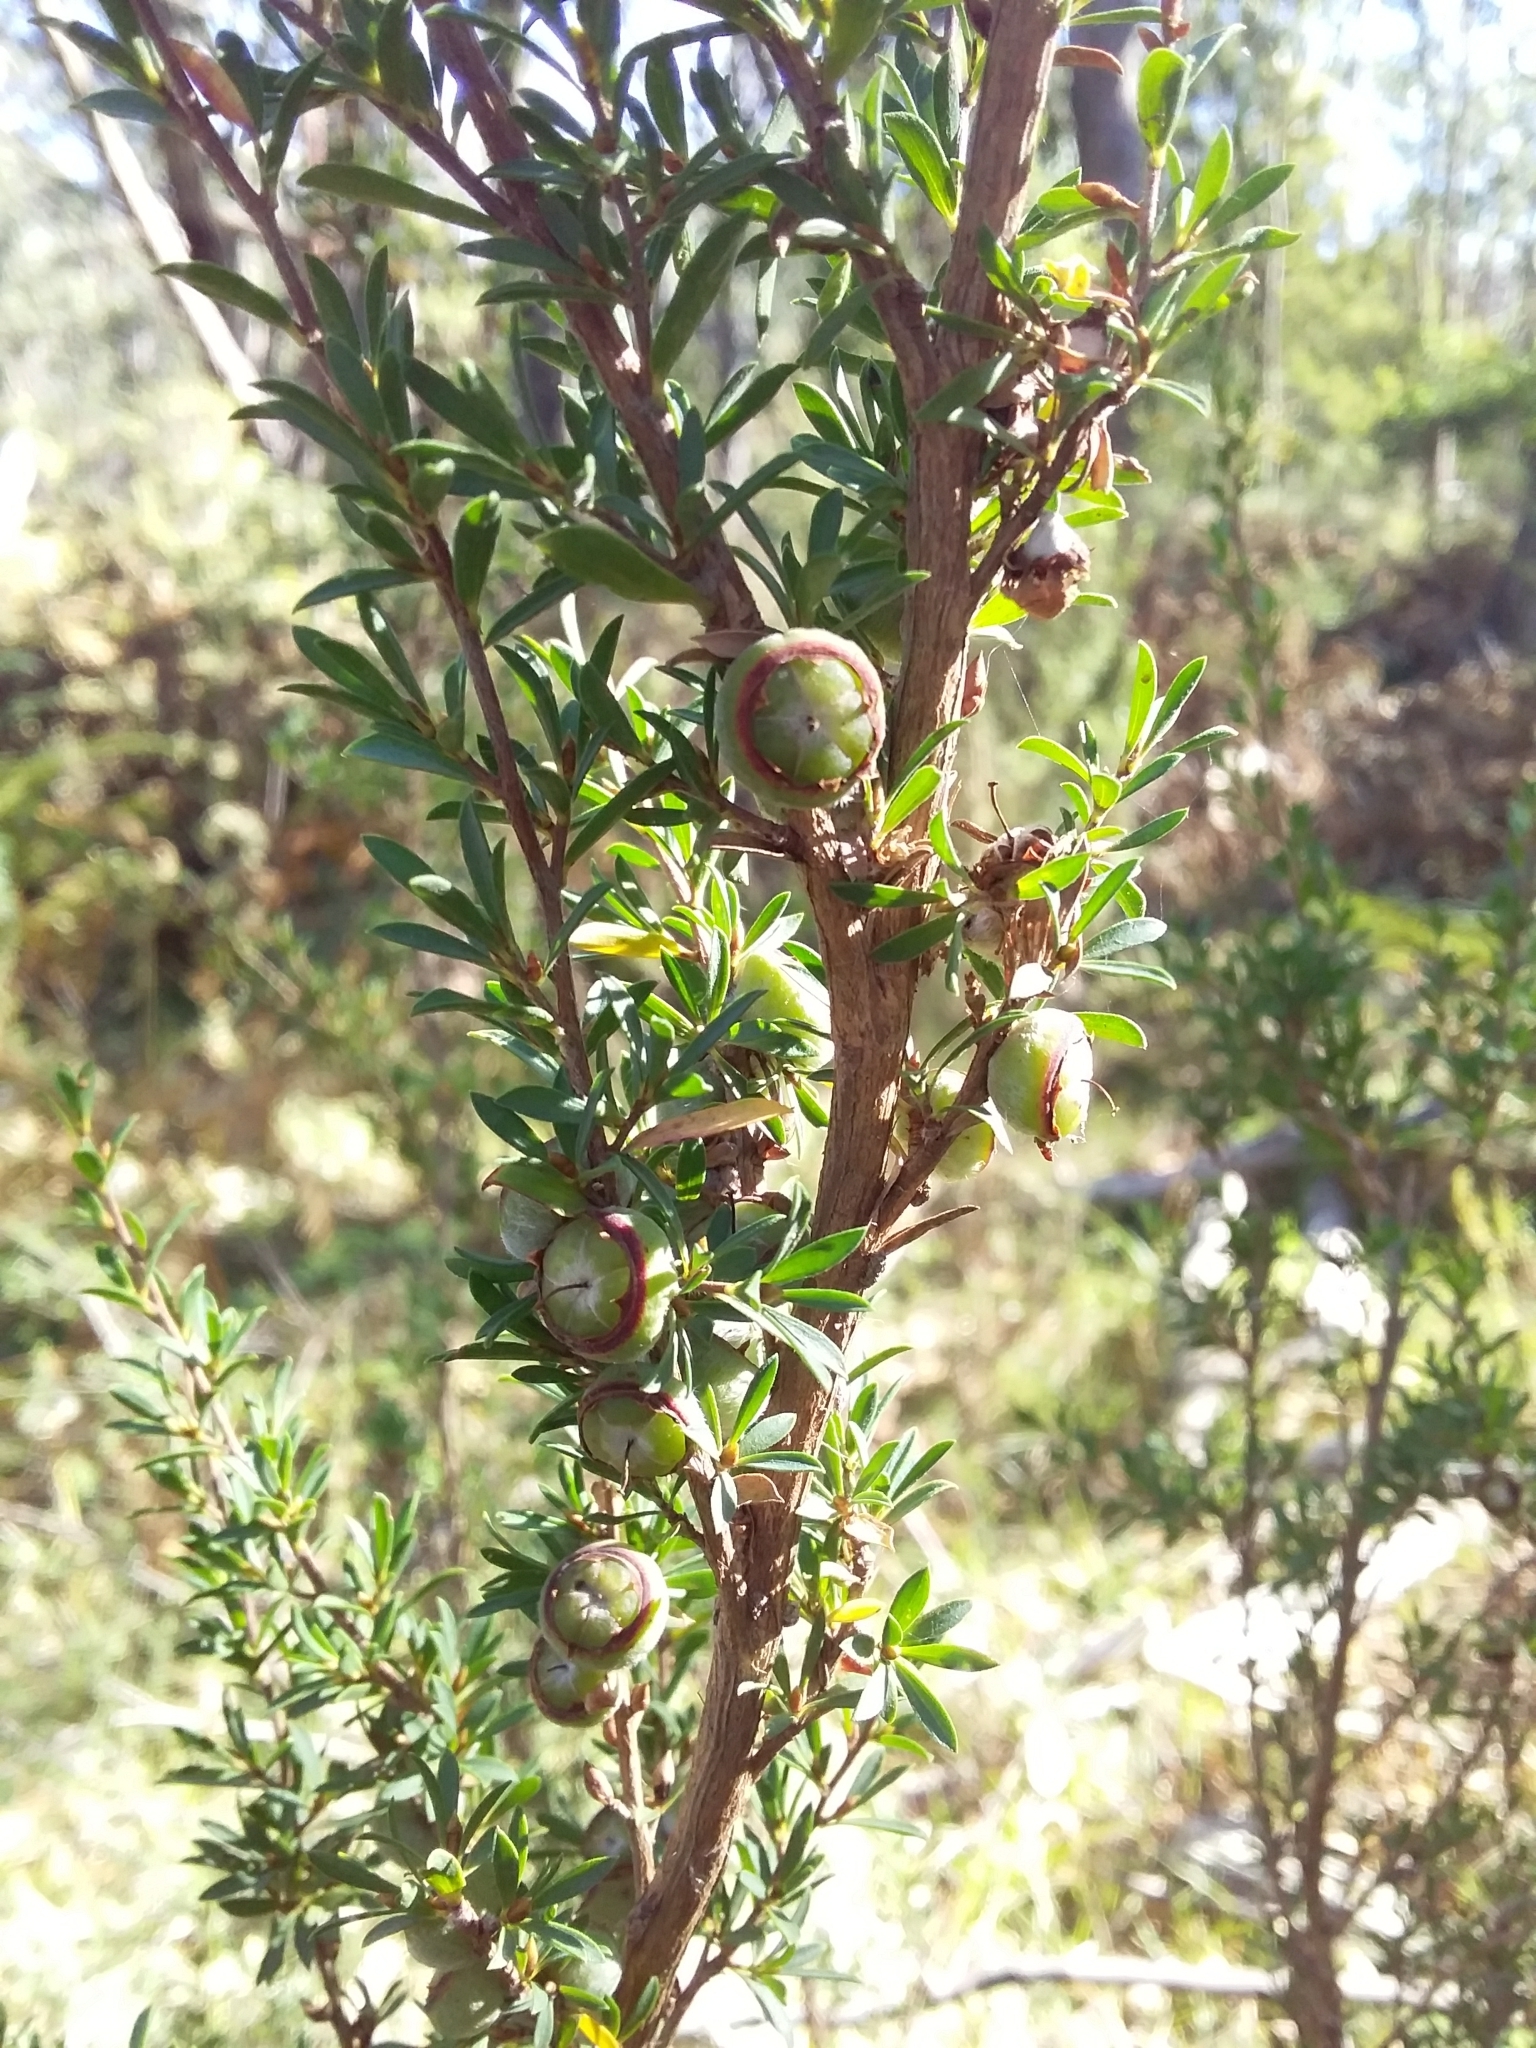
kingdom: Plantae
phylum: Tracheophyta
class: Magnoliopsida
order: Myrtales
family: Myrtaceae
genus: Leptospermum
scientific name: Leptospermum myrsinoides
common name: Heath teatree
